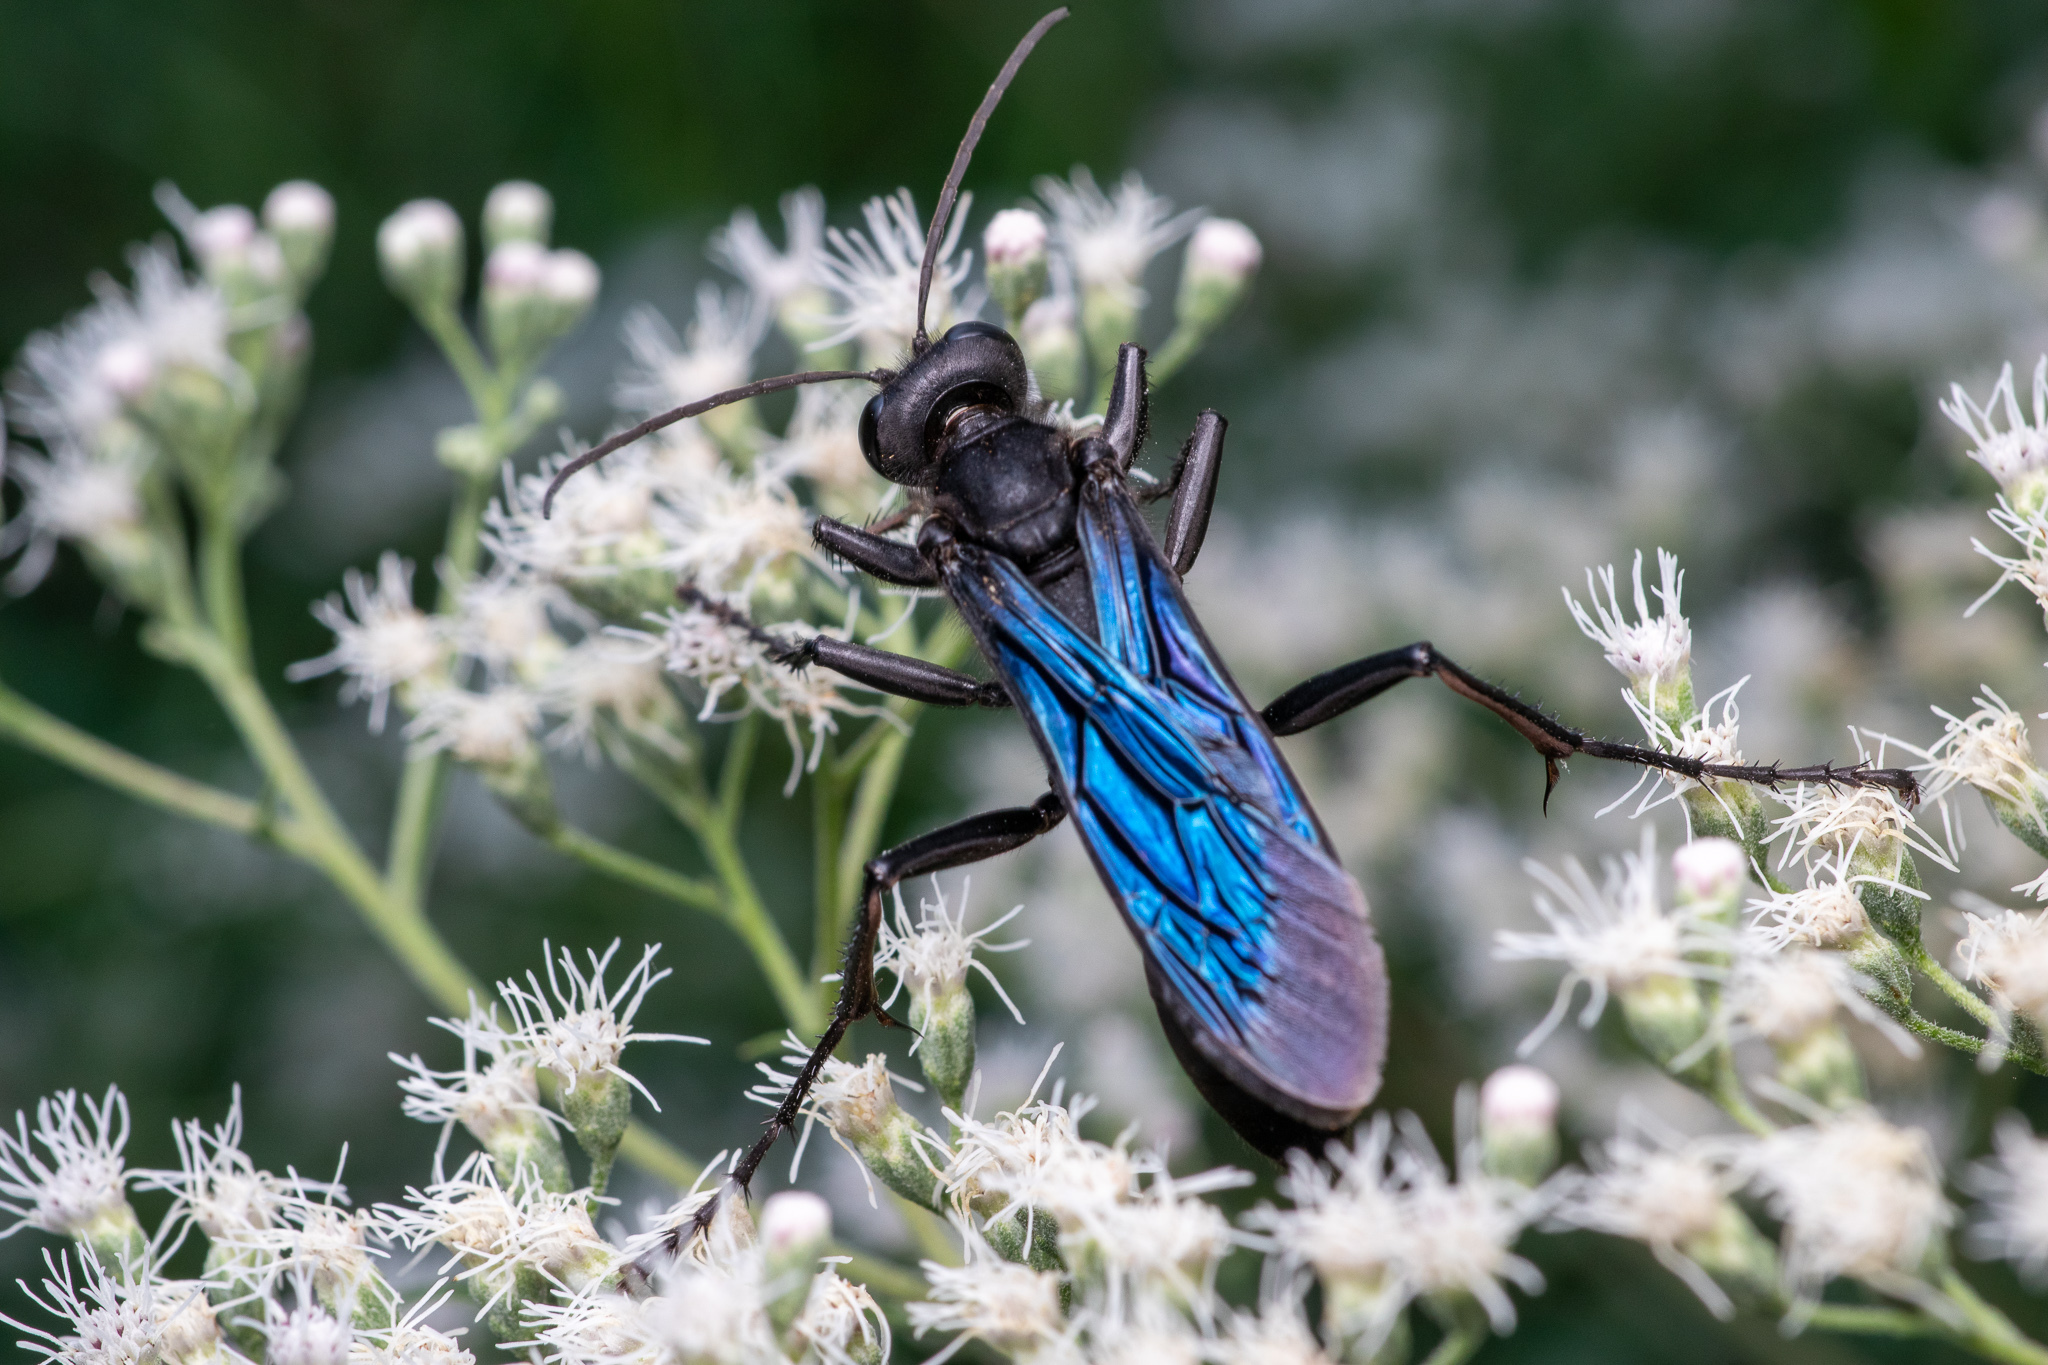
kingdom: Animalia
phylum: Arthropoda
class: Insecta
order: Hymenoptera
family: Sphecidae
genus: Sphex
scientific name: Sphex pensylvanicus
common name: Great black digger wasp
